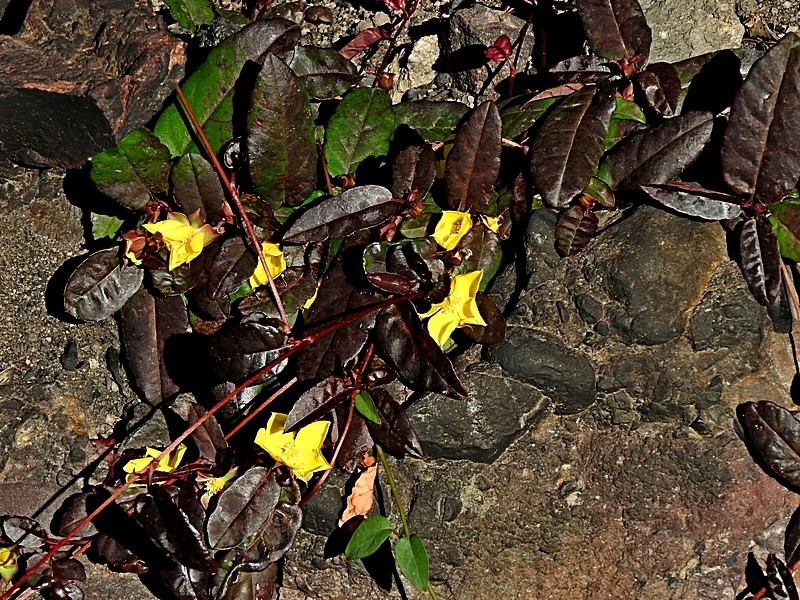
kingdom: Plantae
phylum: Tracheophyta
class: Magnoliopsida
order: Dilleniales
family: Dilleniaceae
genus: Hibbertia
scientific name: Hibbertia dentata
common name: Trailing guinea-flower
